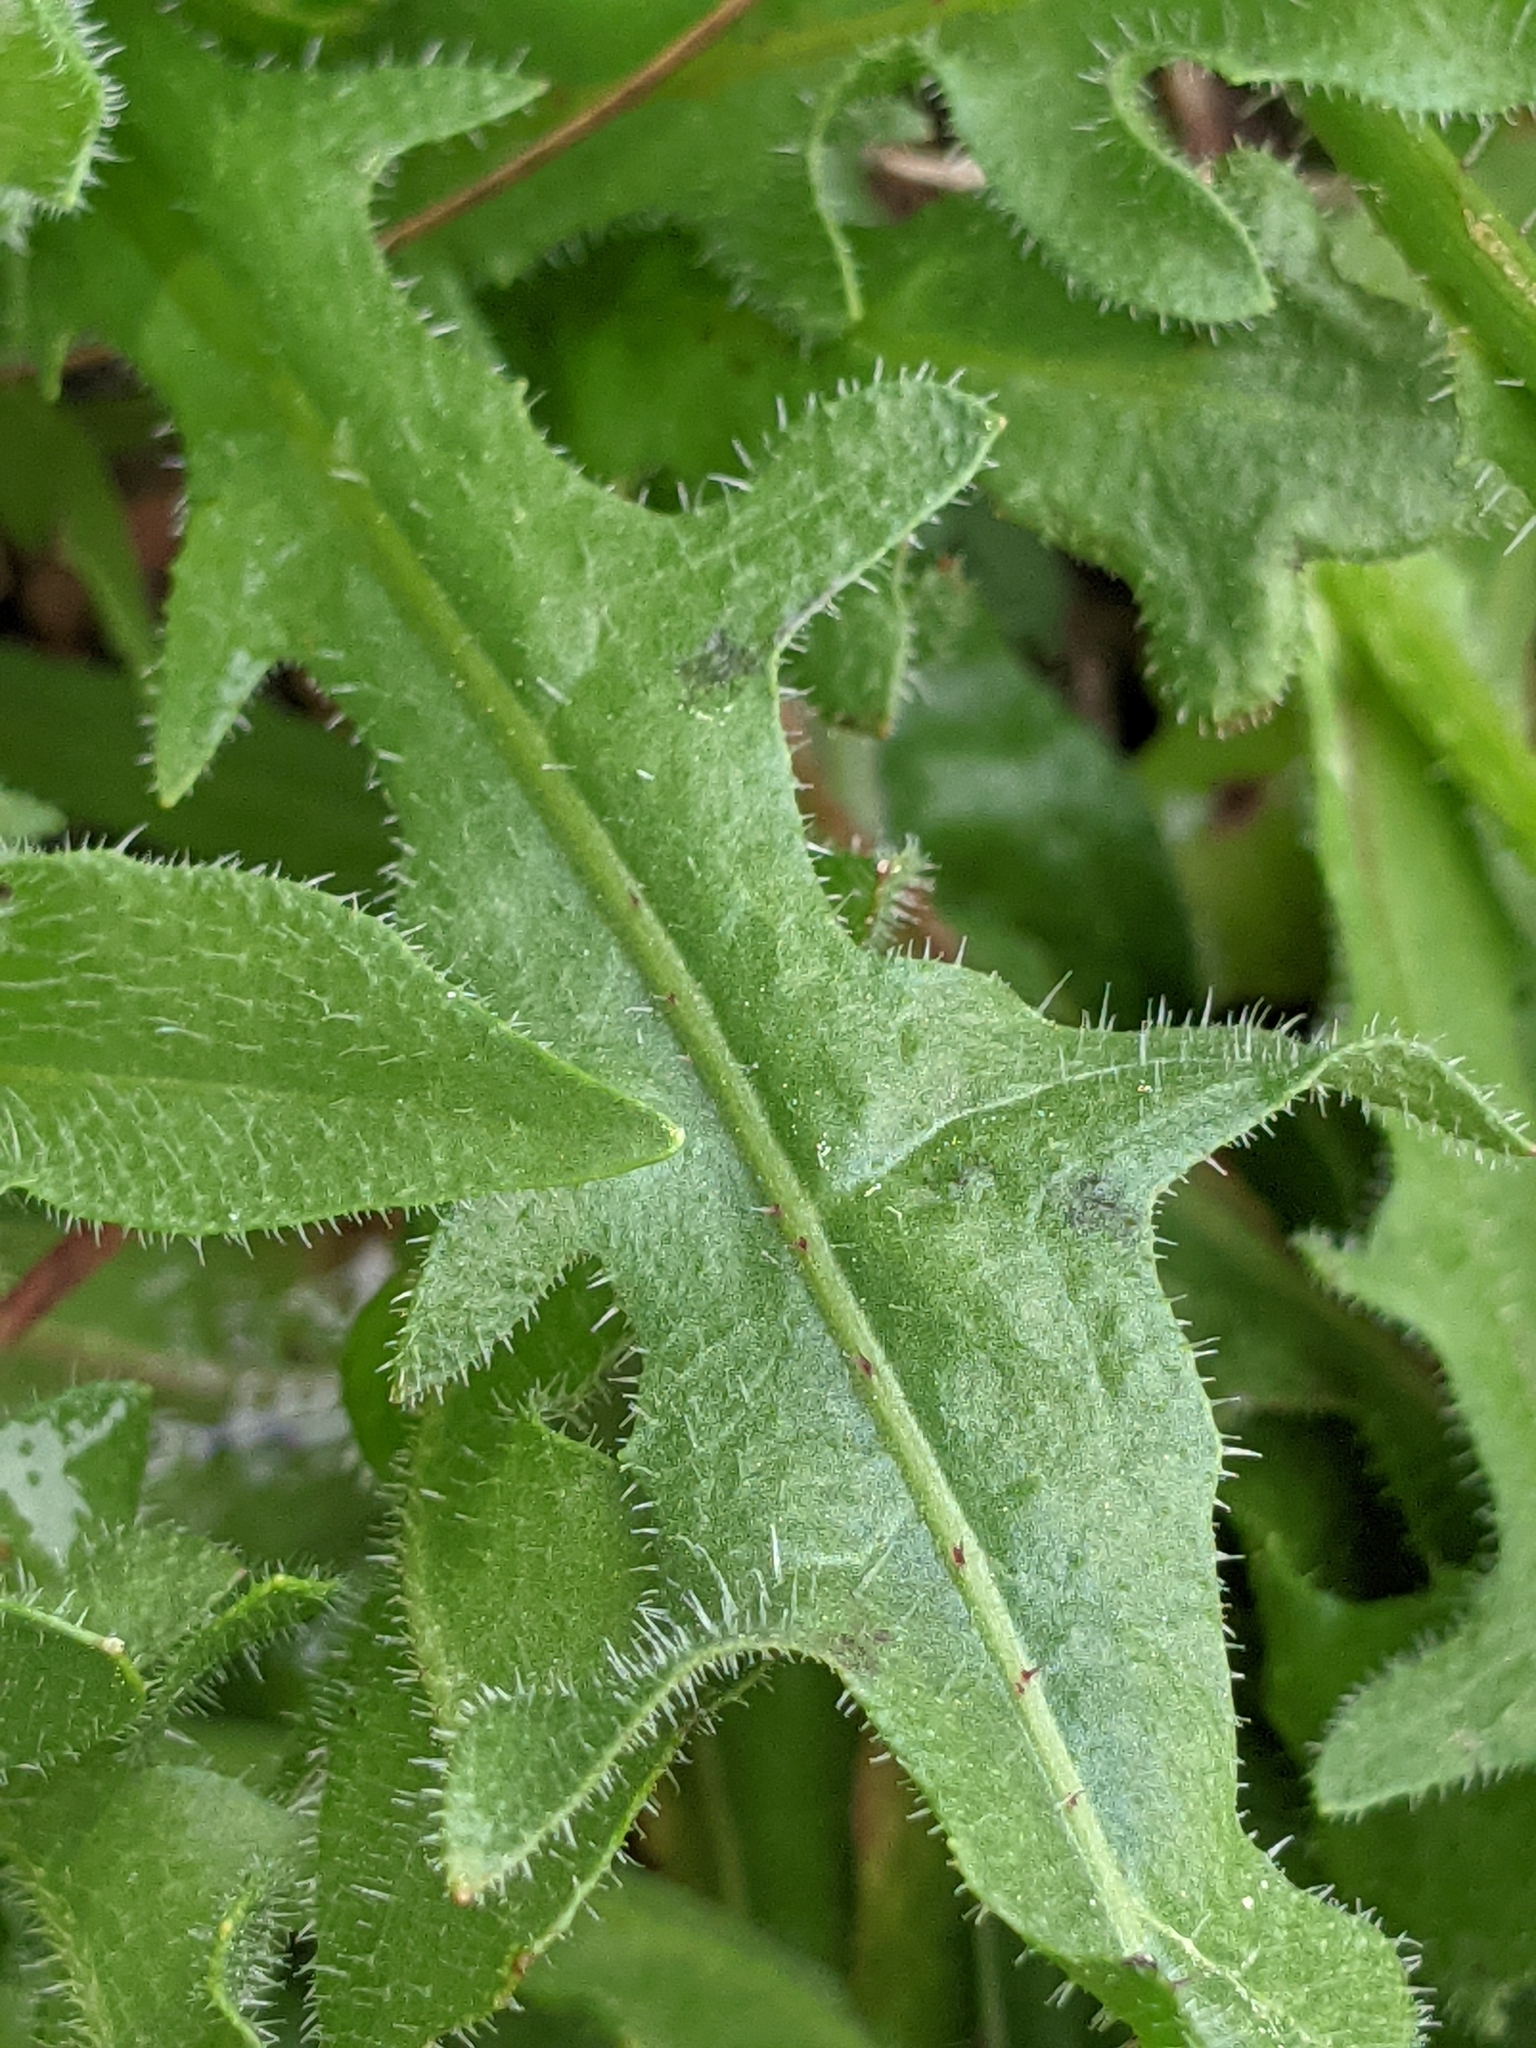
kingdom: Plantae
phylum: Tracheophyta
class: Magnoliopsida
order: Asterales
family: Asteraceae
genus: Hedypnois
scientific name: Hedypnois rhagadioloides
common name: Cretan weed
